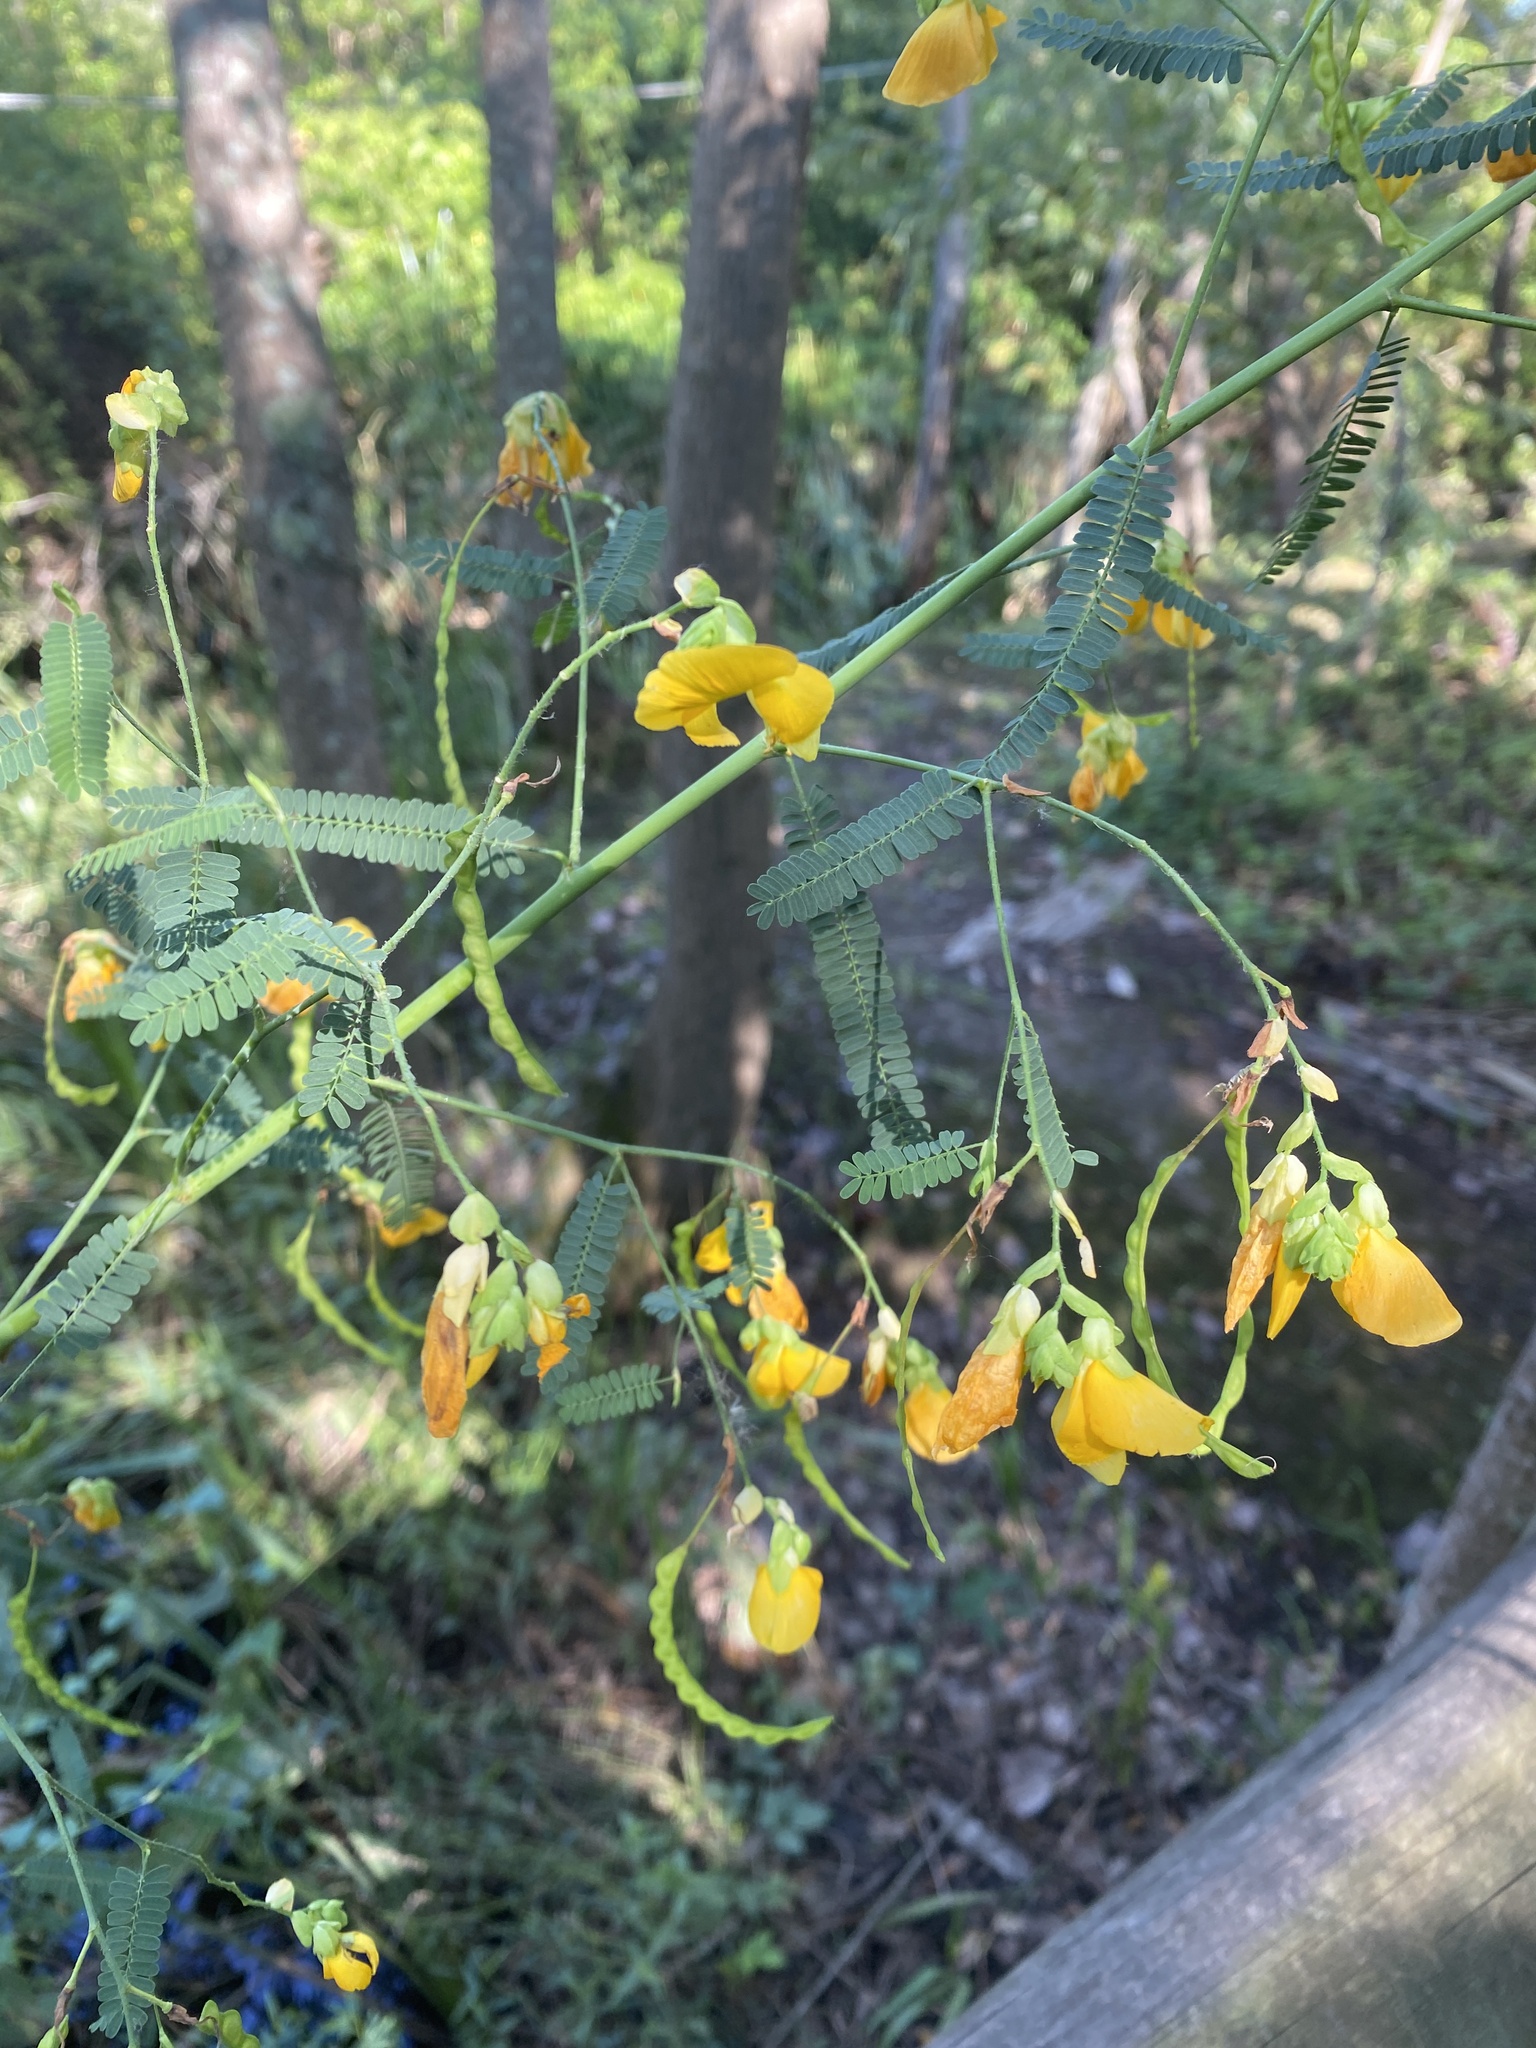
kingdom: Plantae
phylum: Tracheophyta
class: Magnoliopsida
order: Fabales
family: Fabaceae
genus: Aeschynomene
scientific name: Aeschynomene montevidensis
